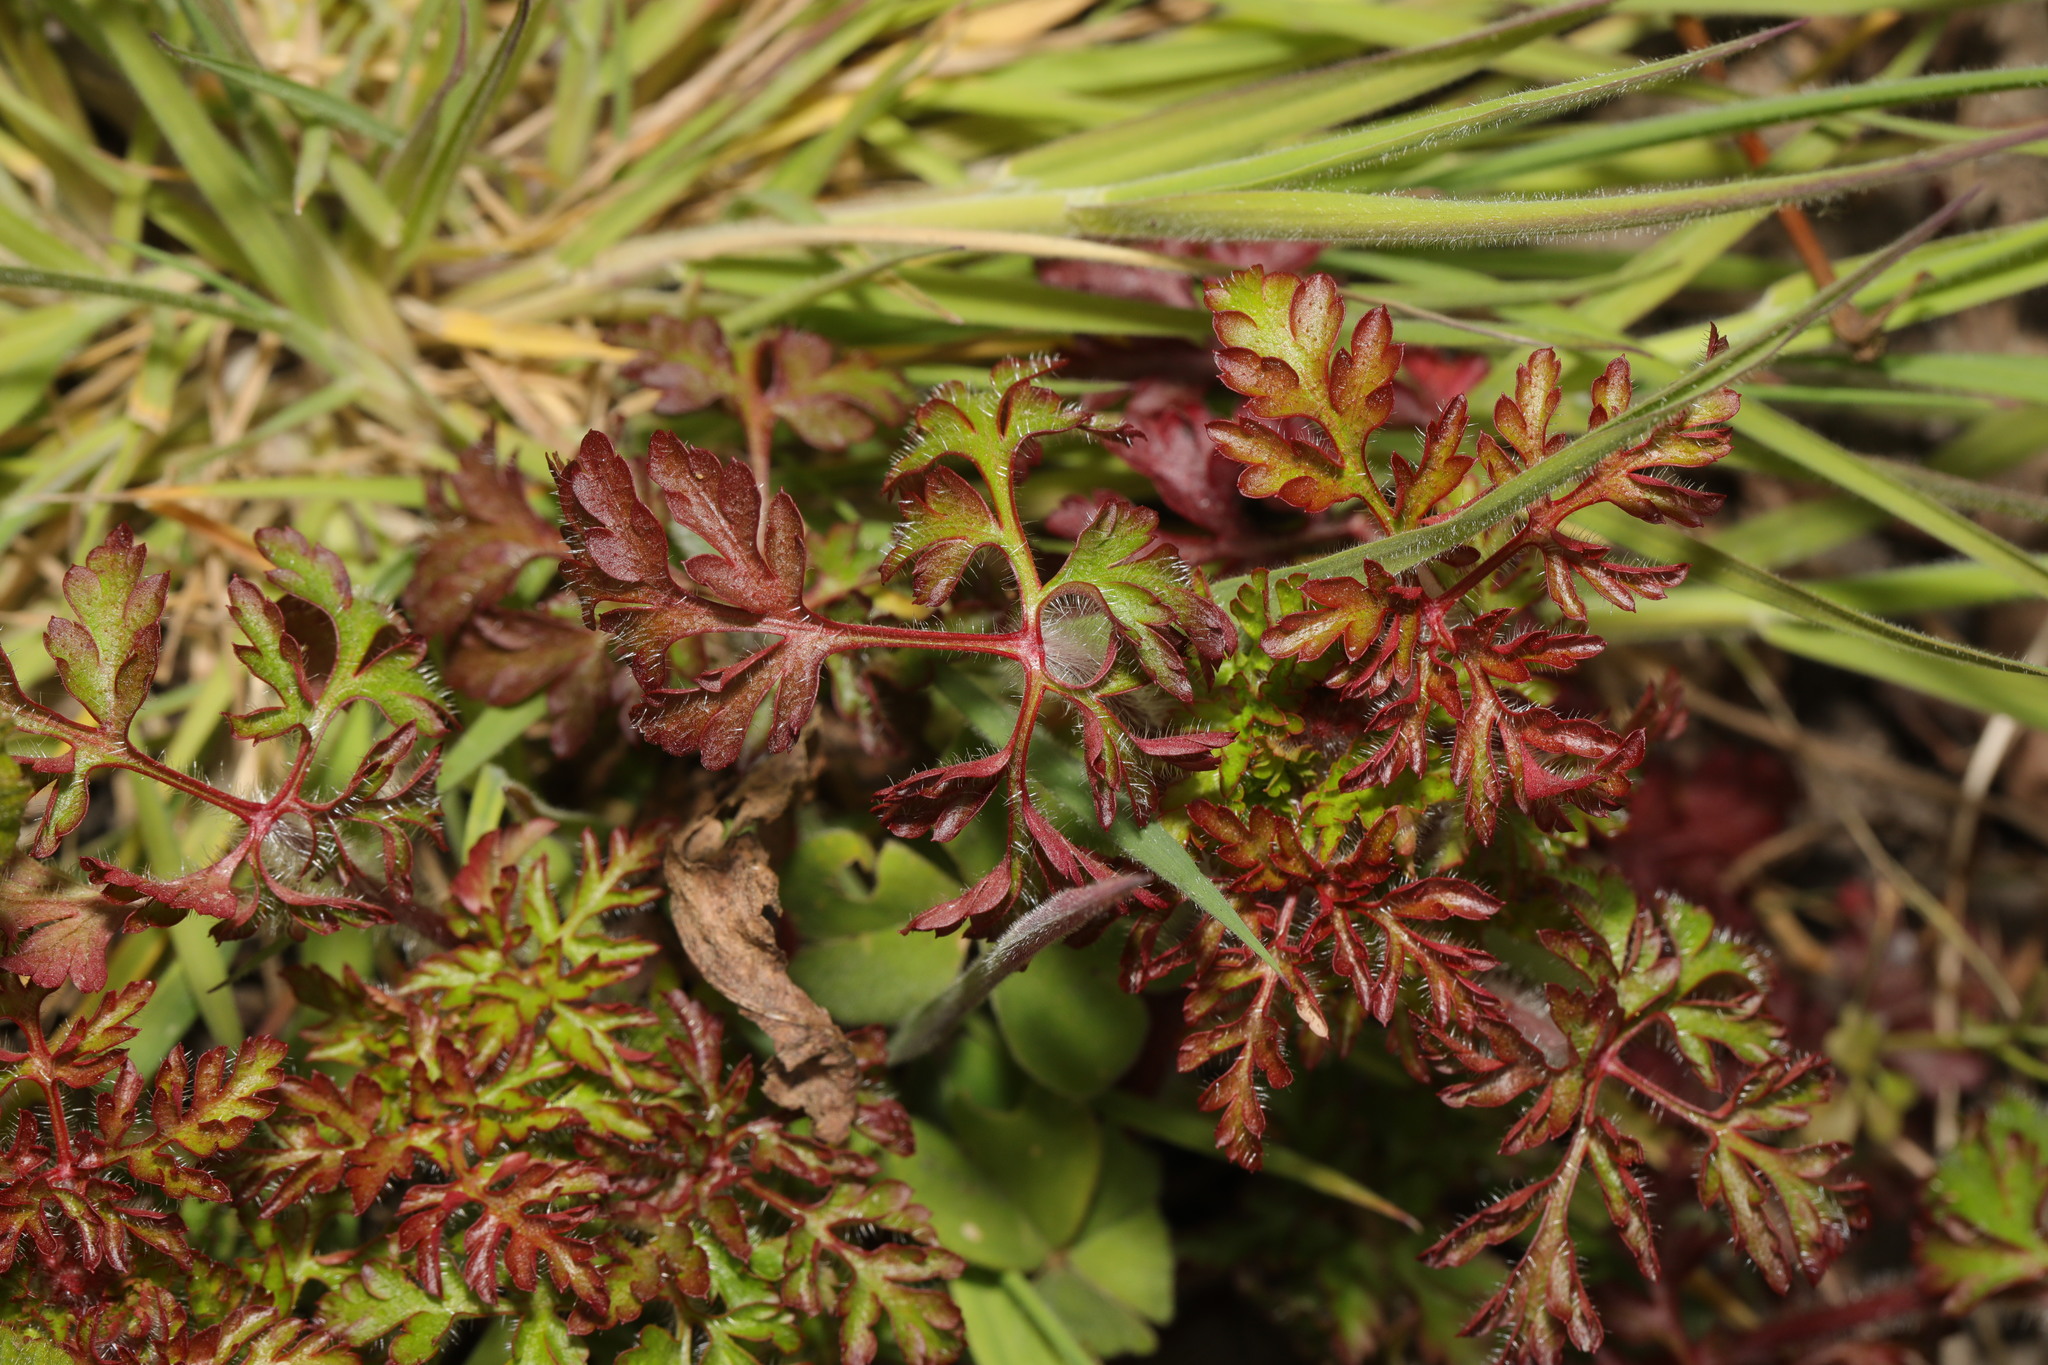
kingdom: Plantae
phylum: Tracheophyta
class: Magnoliopsida
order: Geraniales
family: Geraniaceae
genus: Geranium
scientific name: Geranium robertianum
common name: Herb-robert
